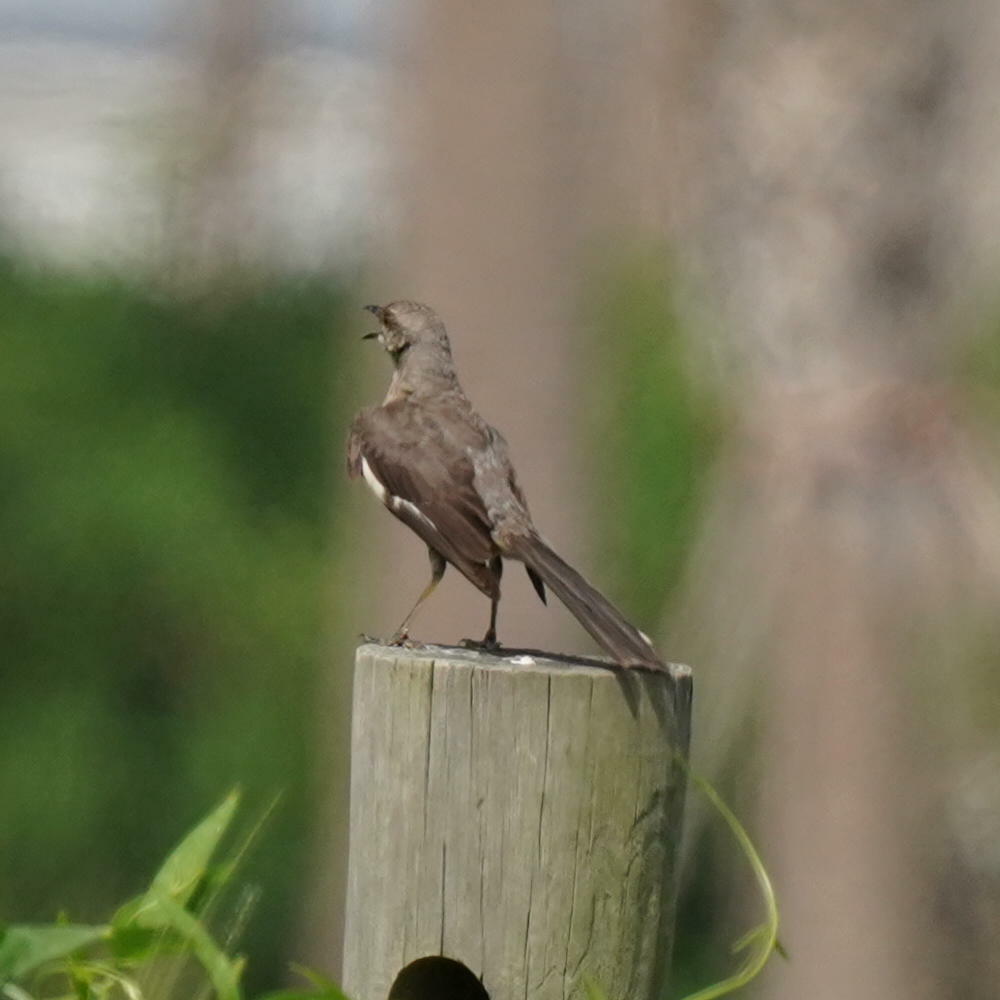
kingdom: Animalia
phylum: Chordata
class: Aves
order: Passeriformes
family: Mimidae
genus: Mimus
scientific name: Mimus polyglottos
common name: Northern mockingbird
